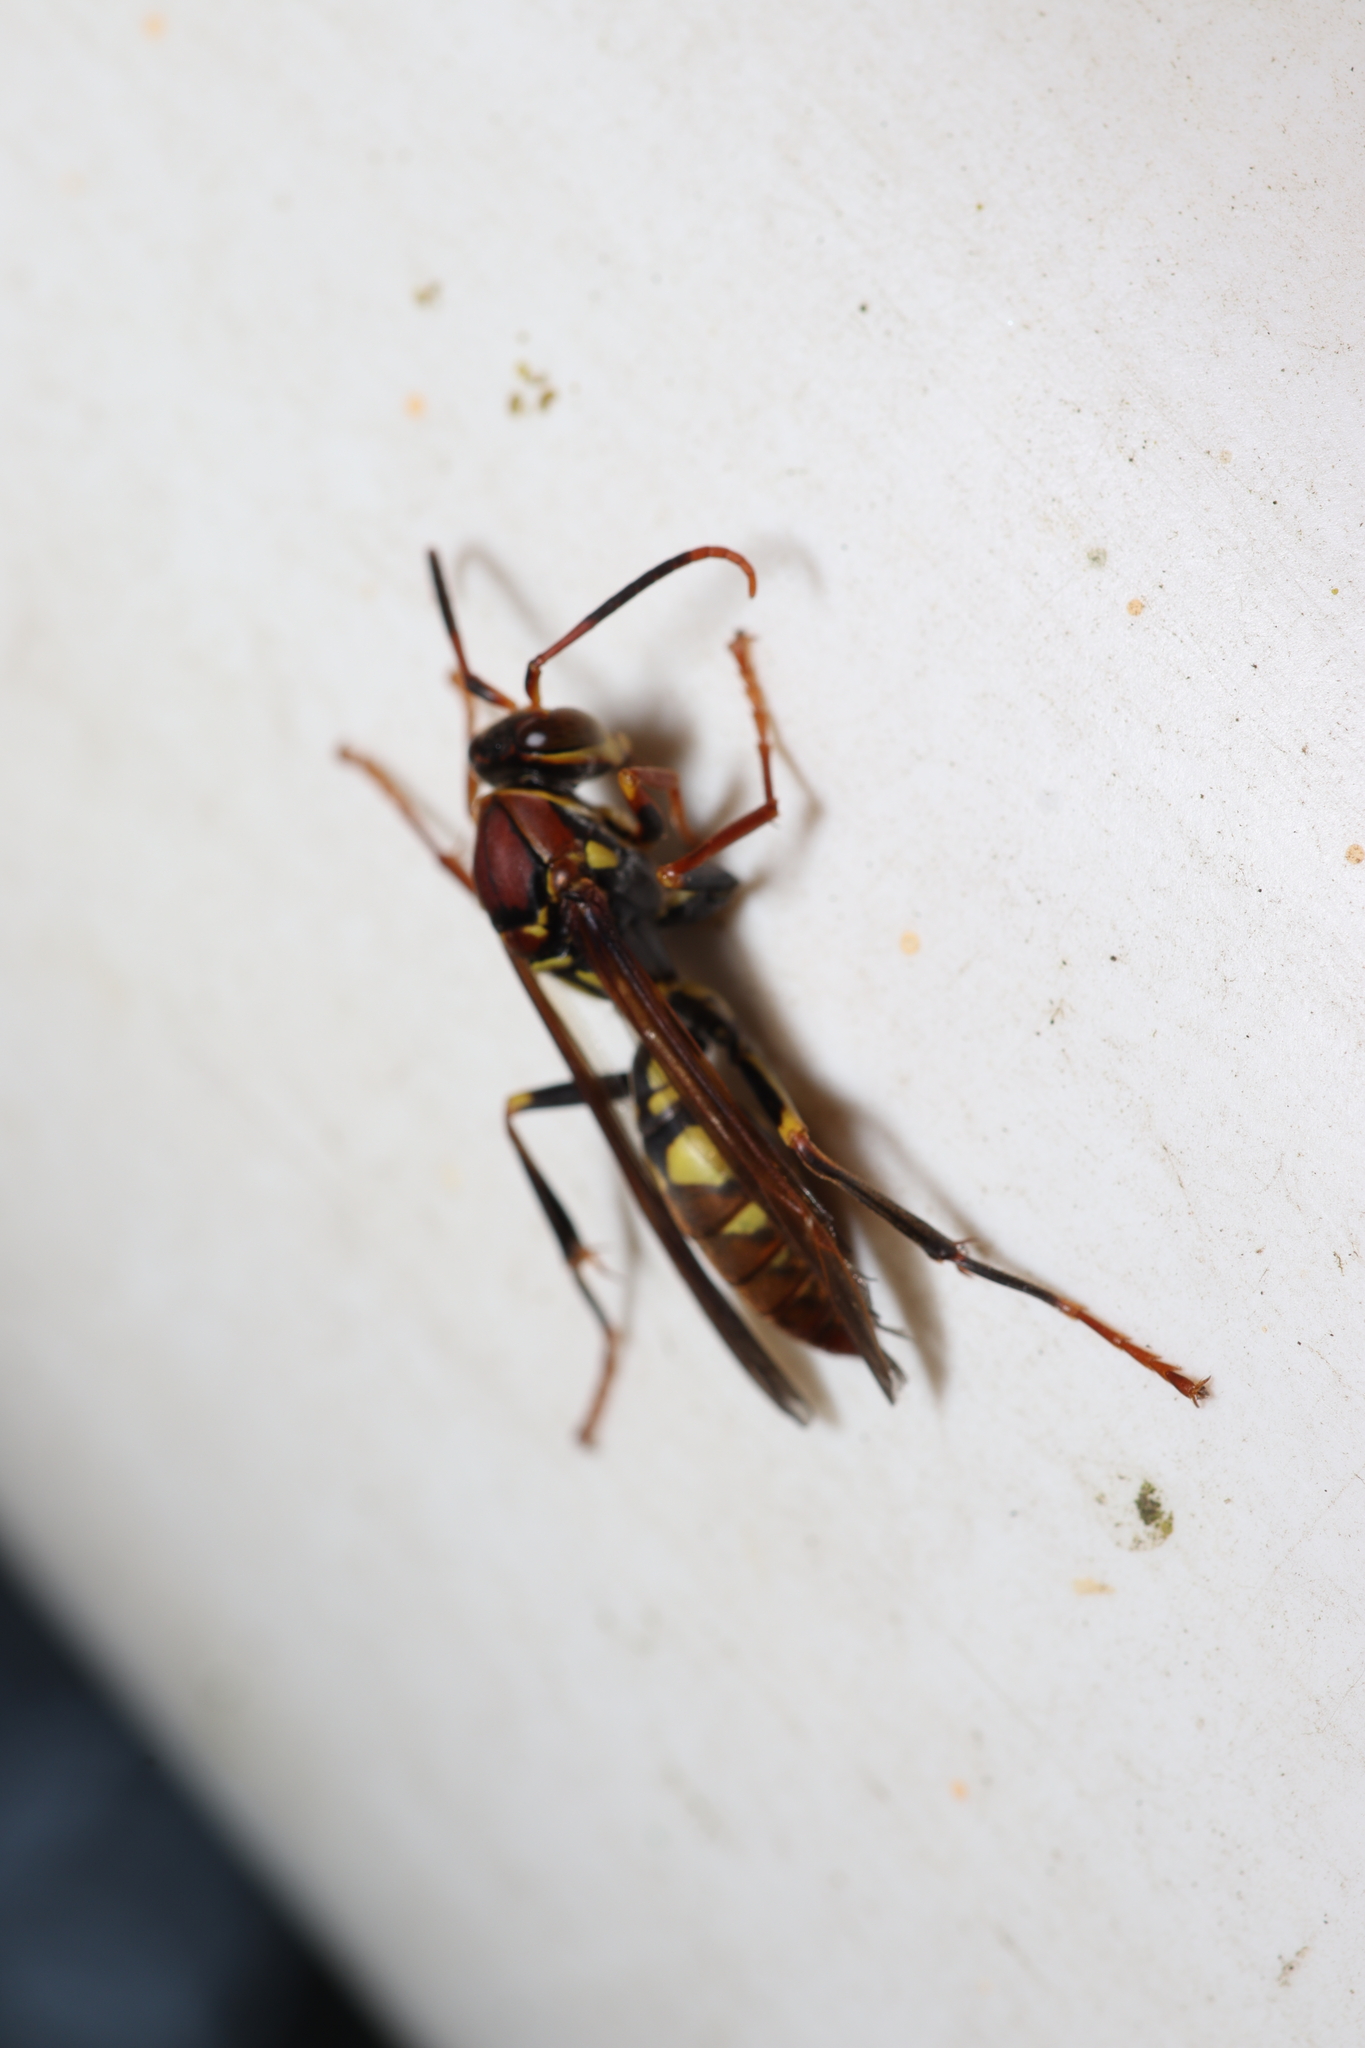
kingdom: Animalia
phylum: Arthropoda
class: Insecta
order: Hymenoptera
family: Eumenidae
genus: Polistes
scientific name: Polistes versicolor
